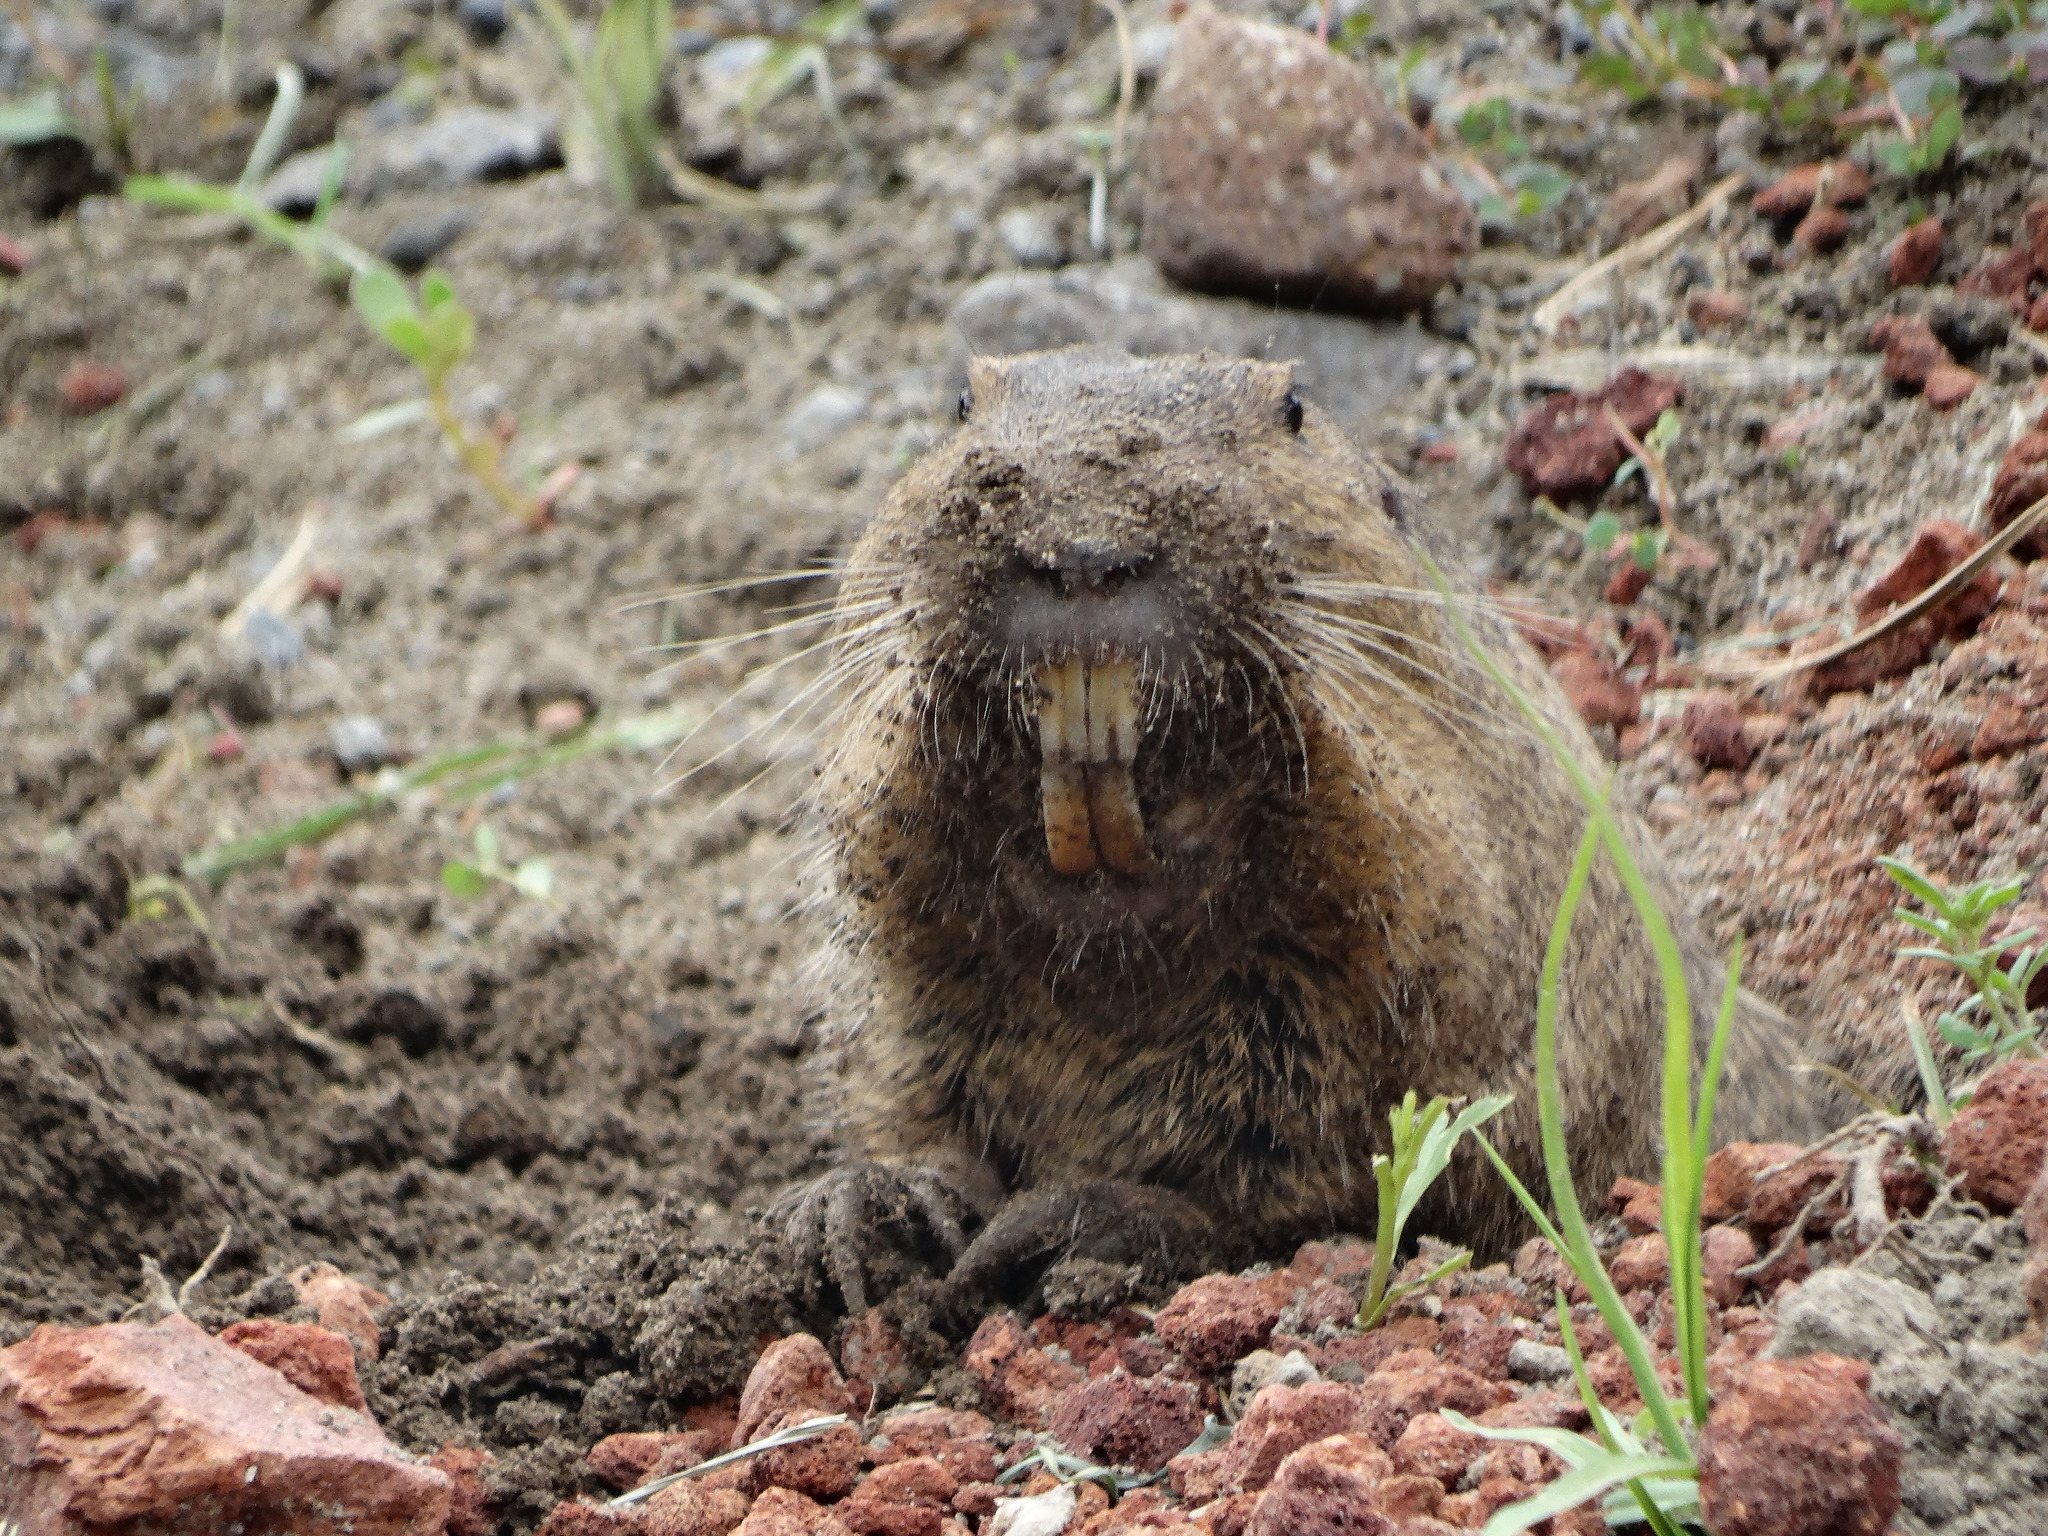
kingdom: Animalia
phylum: Chordata
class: Mammalia
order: Rodentia
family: Geomyidae
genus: Cratogeomys
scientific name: Cratogeomys fulvescens
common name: Oriental basin pocket gopher
